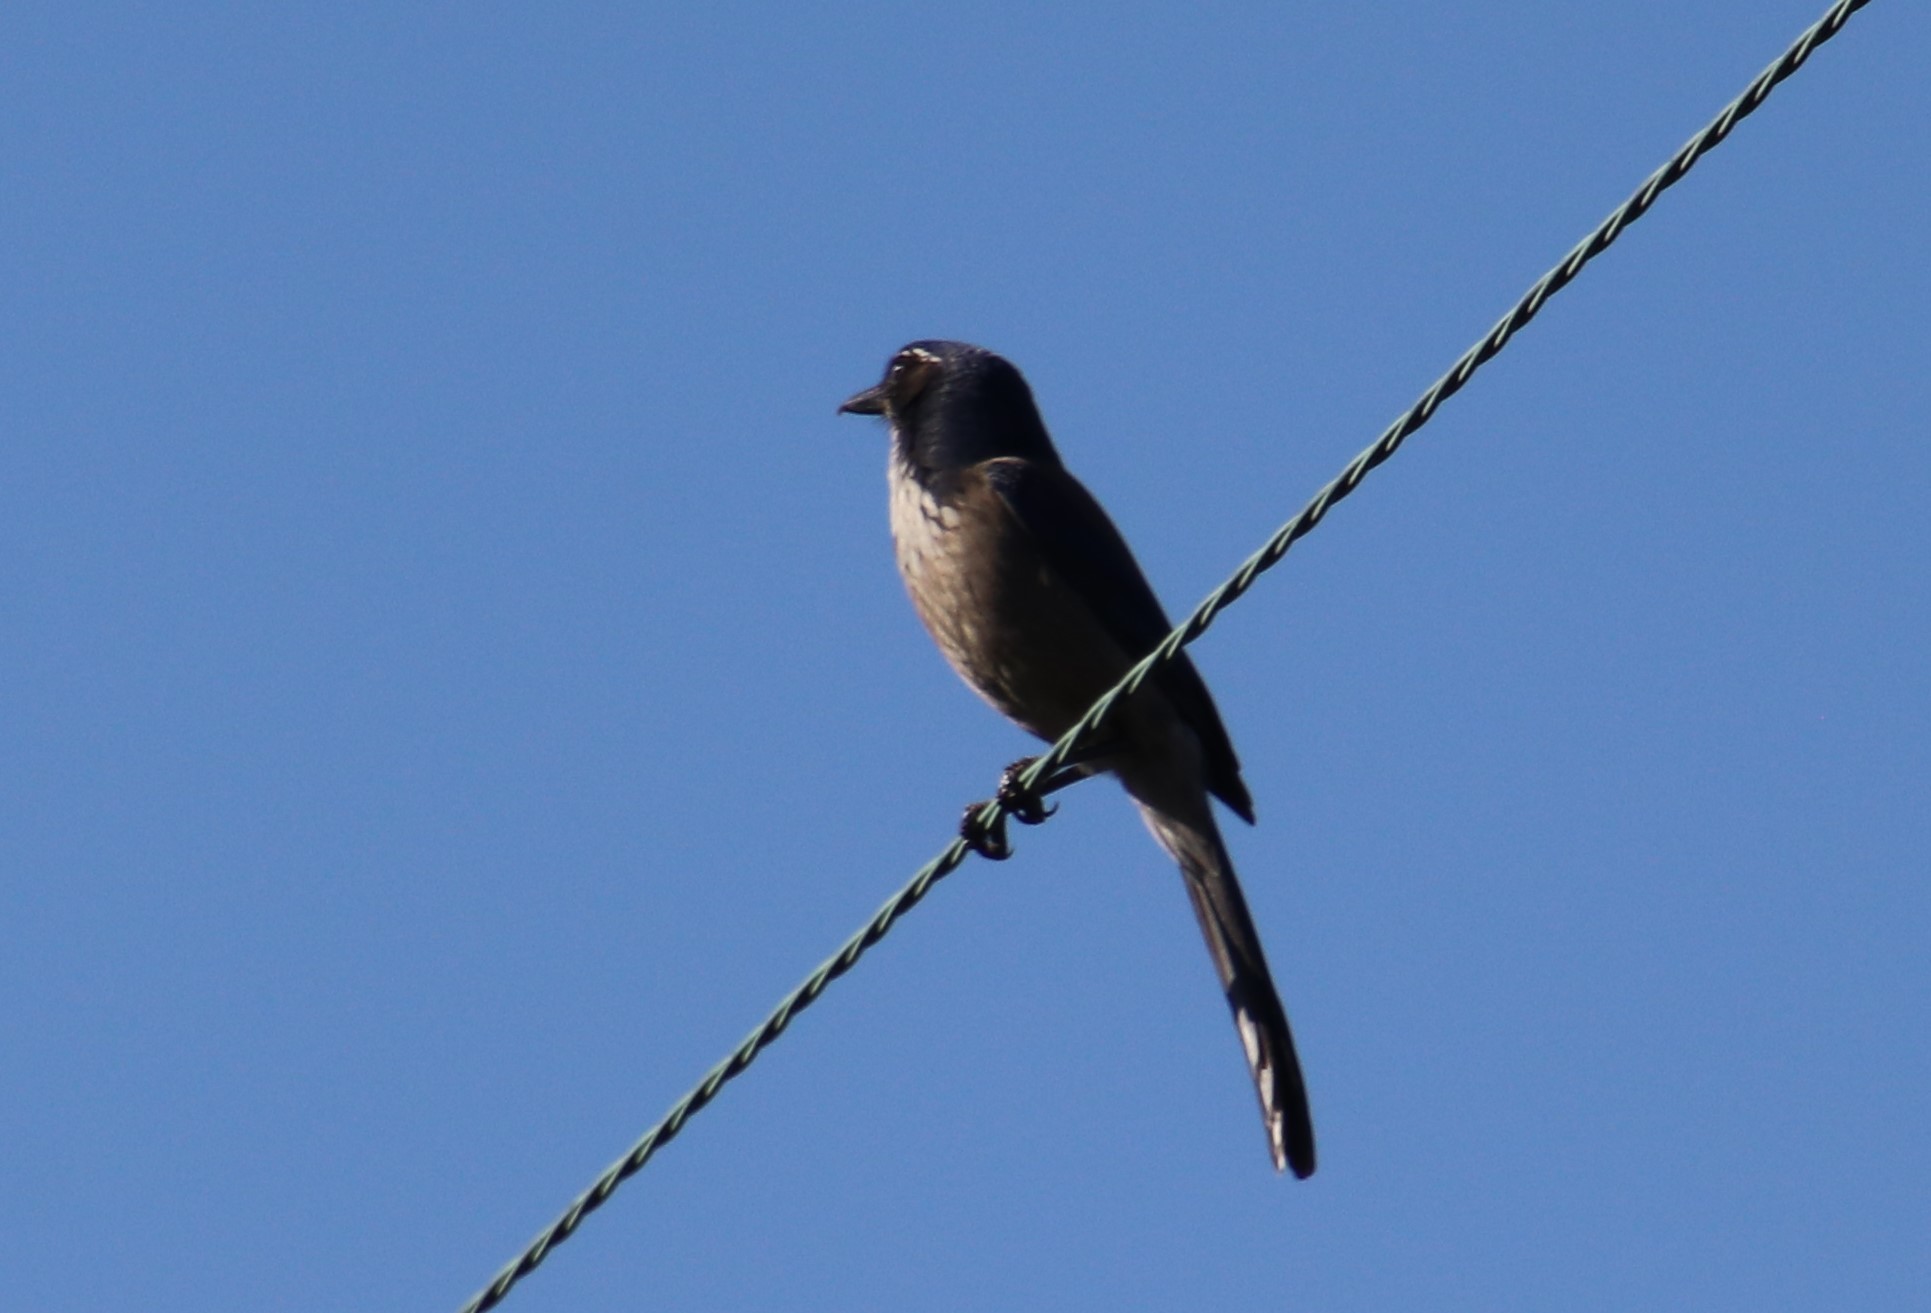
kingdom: Animalia
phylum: Chordata
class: Aves
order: Passeriformes
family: Corvidae
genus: Aphelocoma
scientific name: Aphelocoma californica
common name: California scrub-jay
